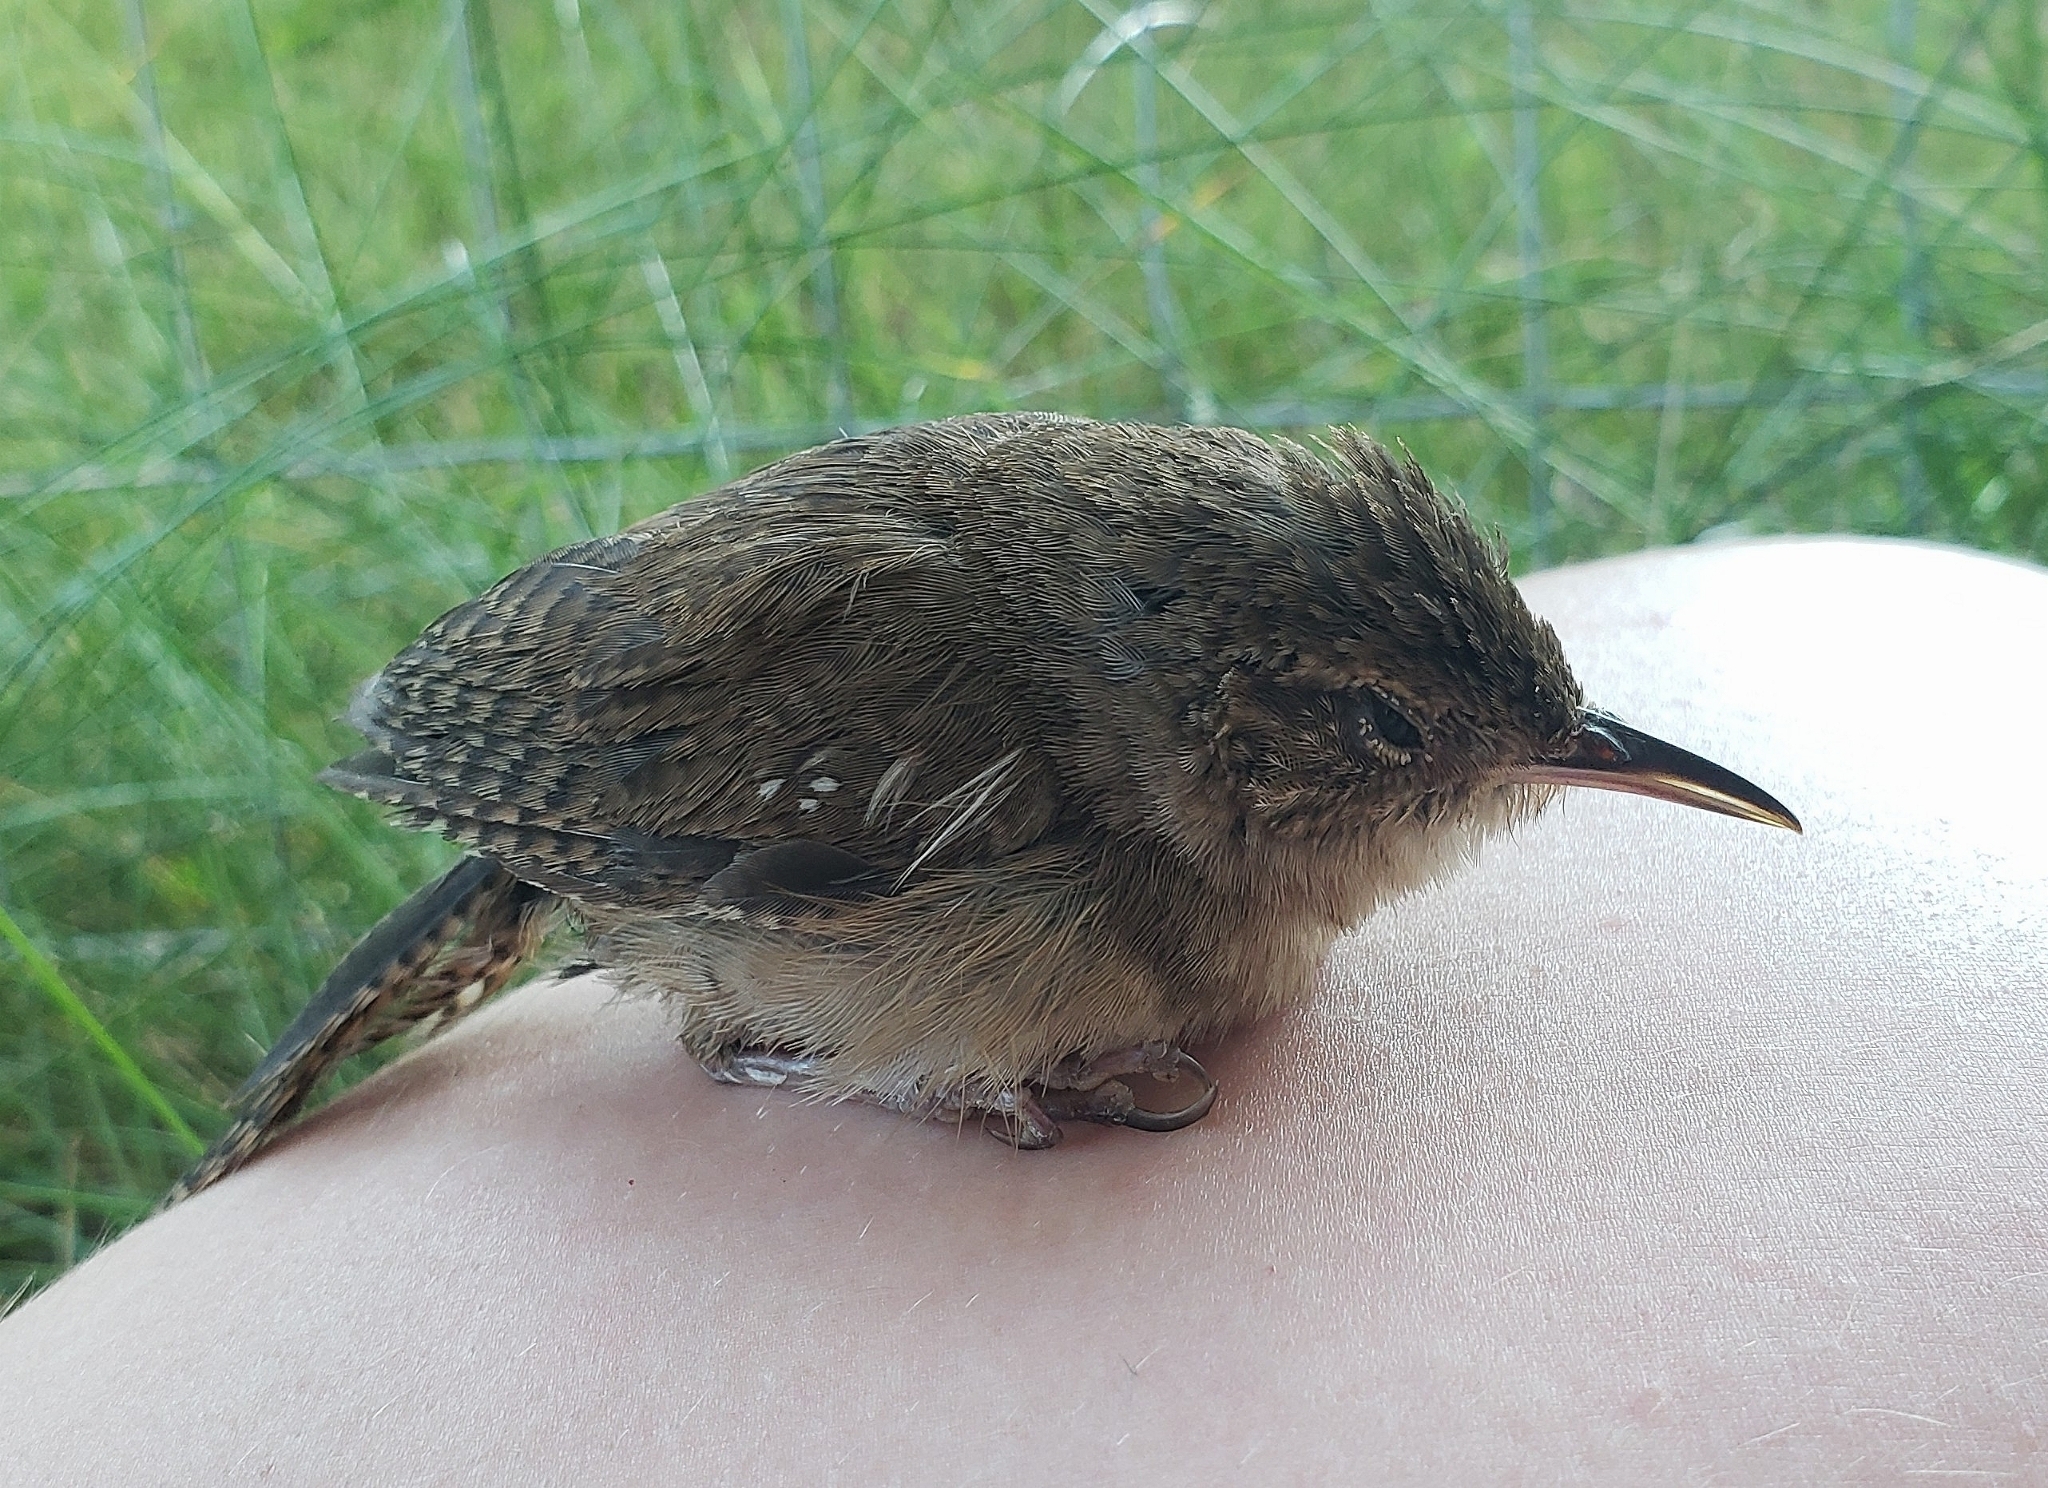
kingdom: Animalia
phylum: Chordata
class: Aves
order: Passeriformes
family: Troglodytidae
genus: Troglodytes
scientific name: Troglodytes aedon
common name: House wren
